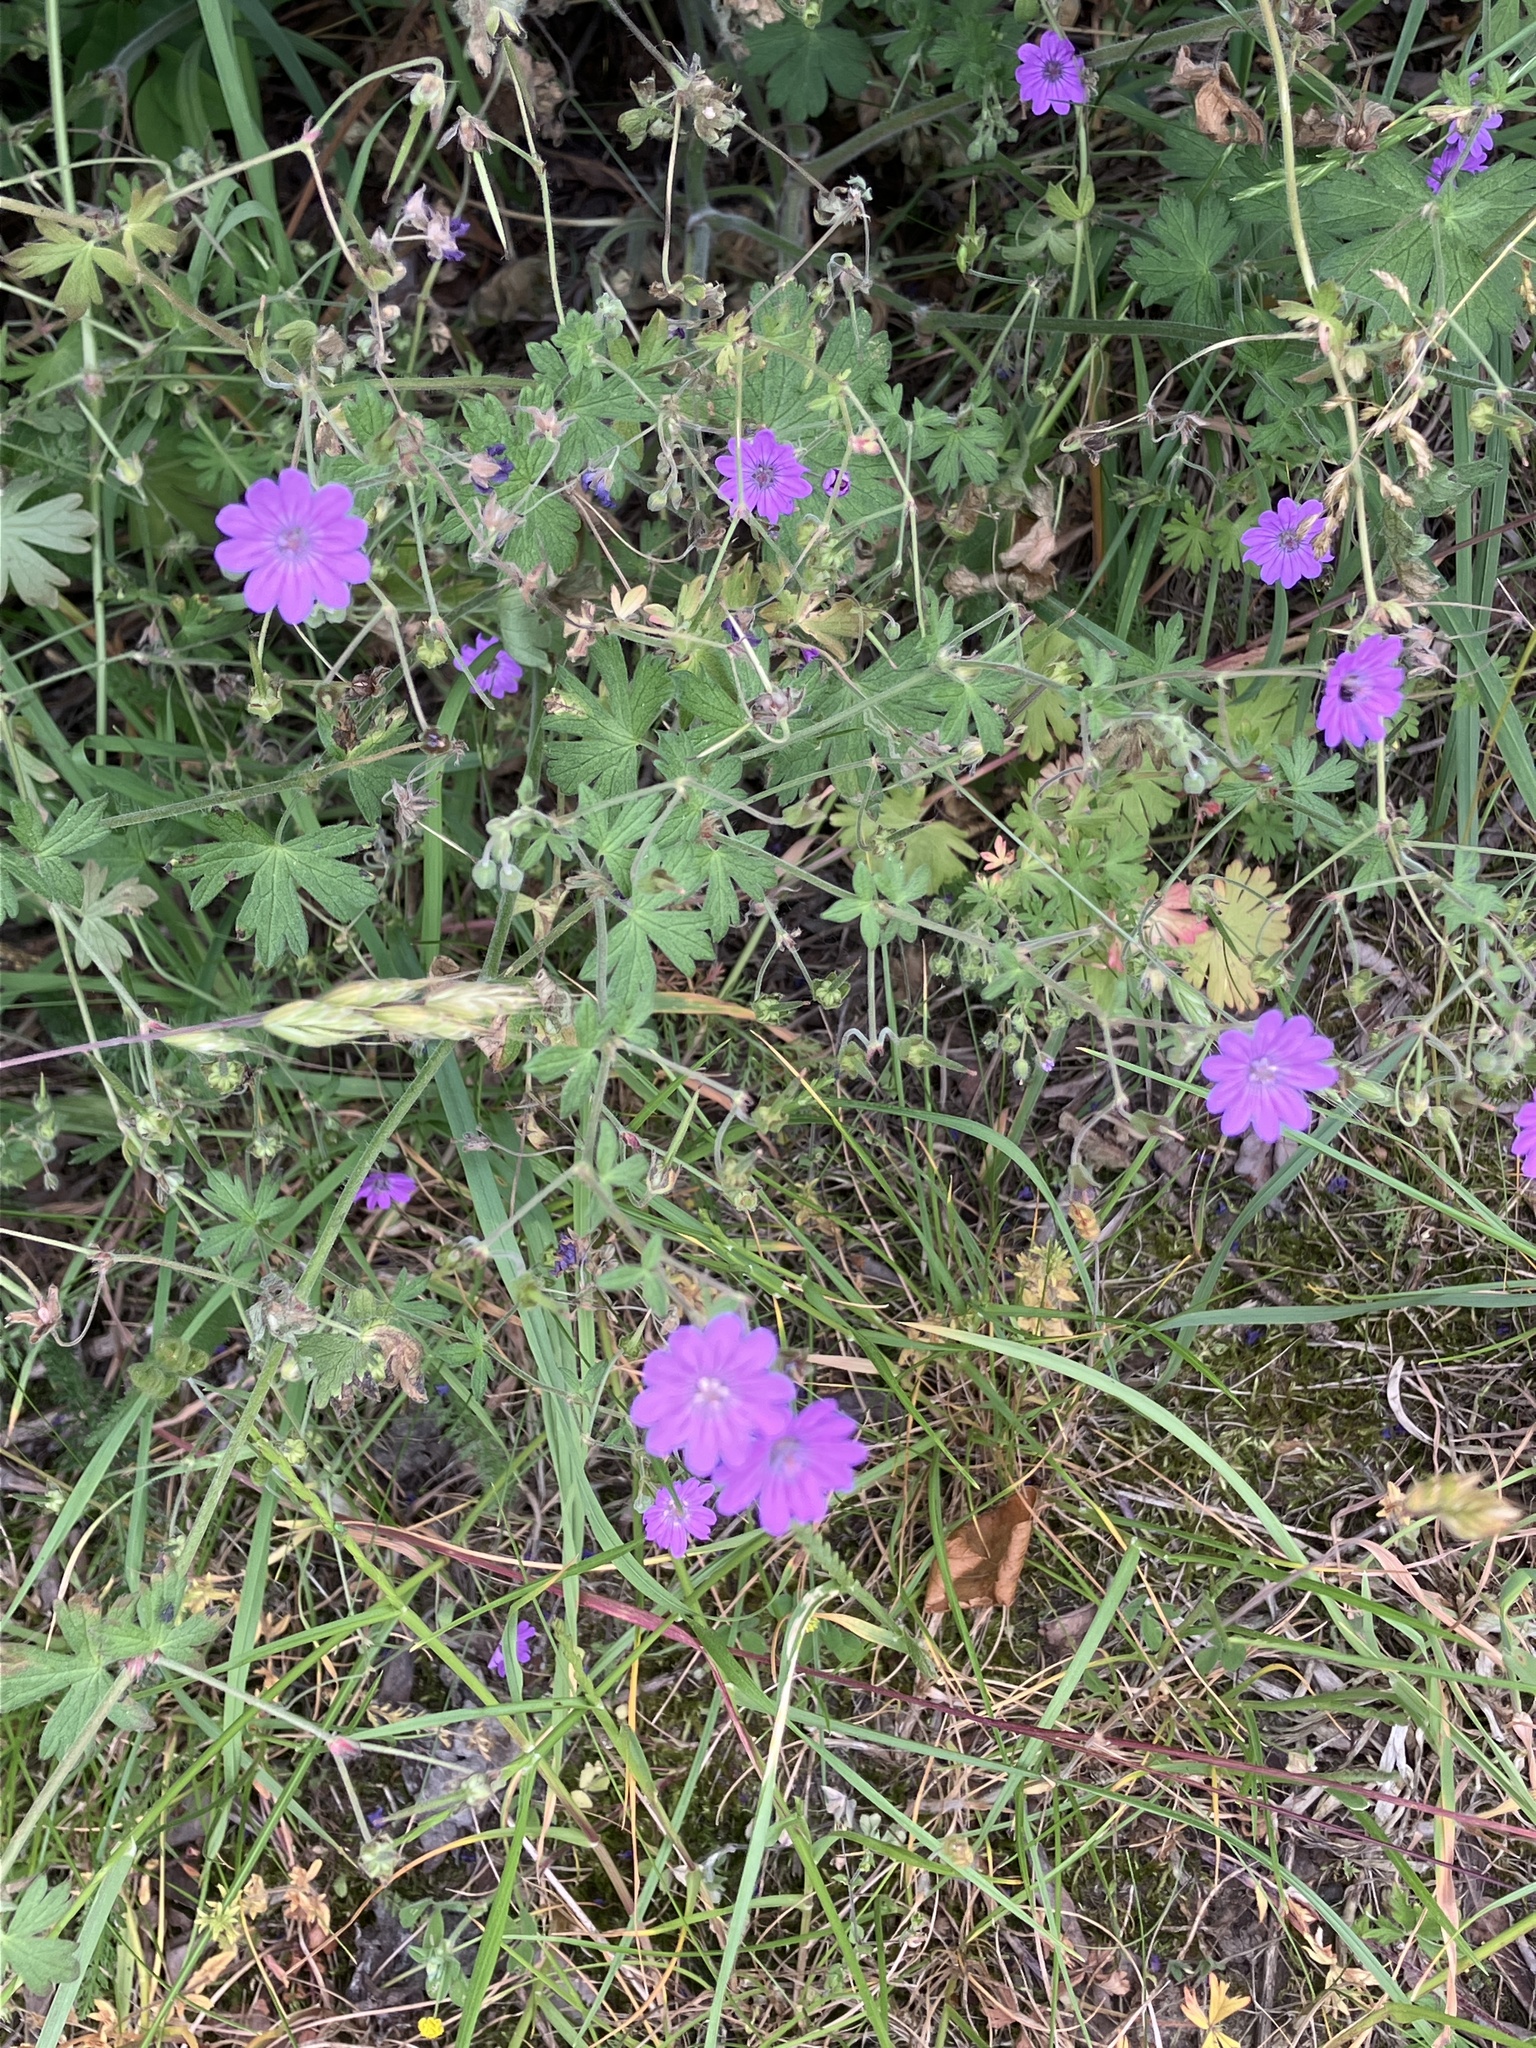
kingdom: Plantae
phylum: Tracheophyta
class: Magnoliopsida
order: Geraniales
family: Geraniaceae
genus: Geranium
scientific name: Geranium pyrenaicum
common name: Hedgerow crane's-bill
